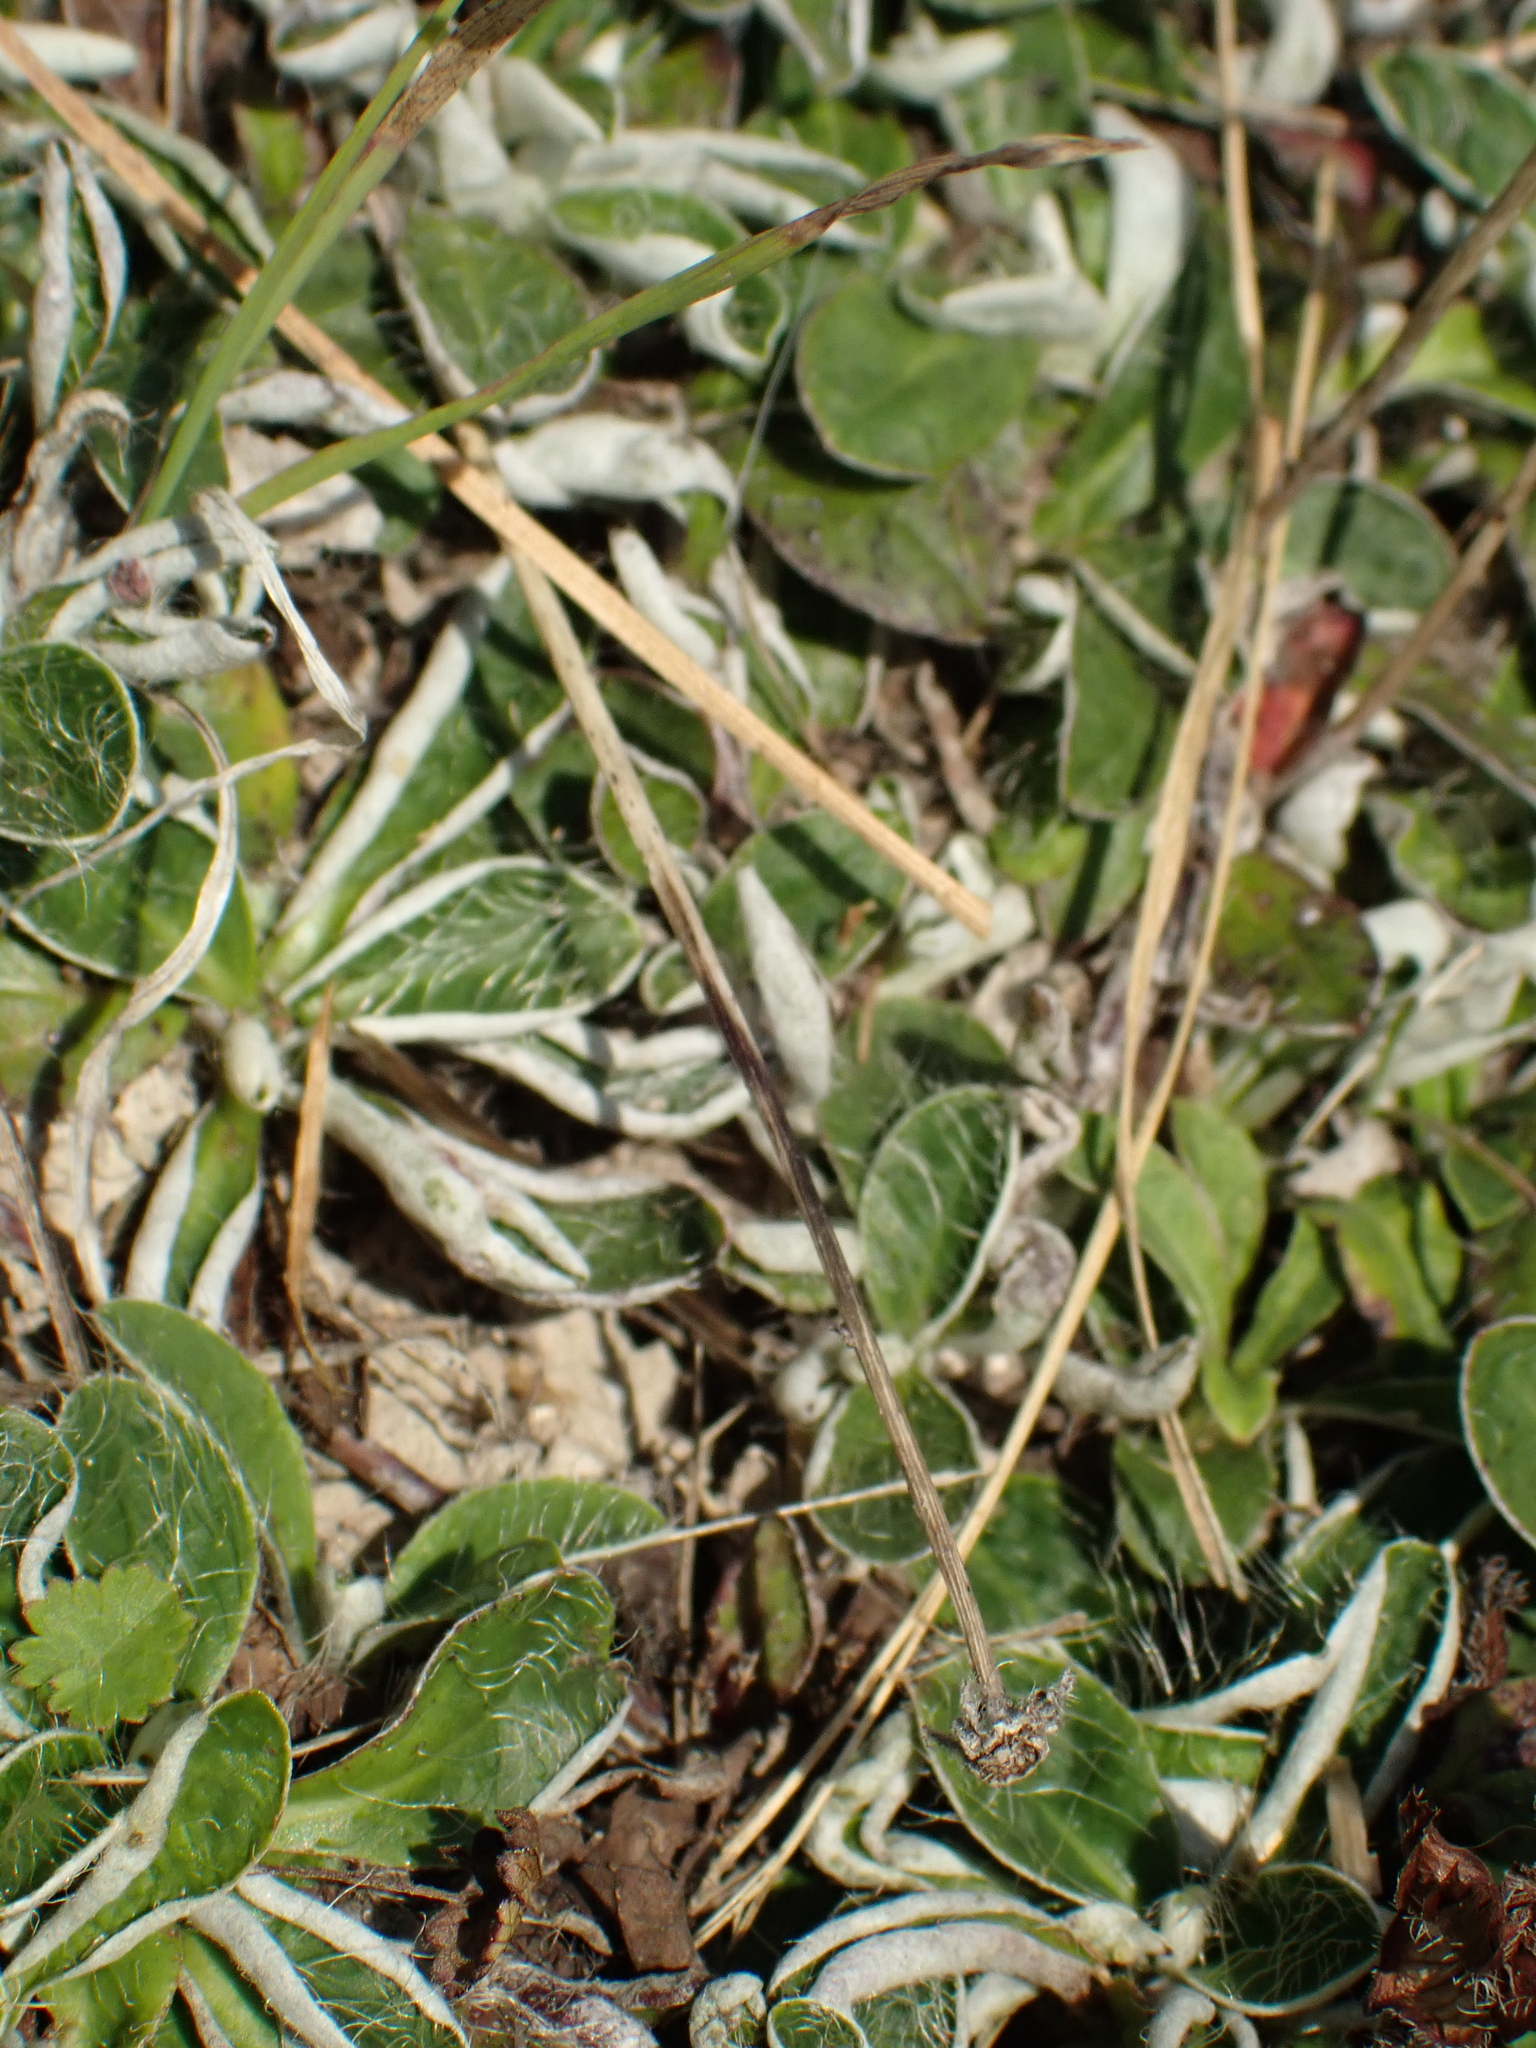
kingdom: Plantae
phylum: Tracheophyta
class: Magnoliopsida
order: Asterales
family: Asteraceae
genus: Pilosella
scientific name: Pilosella officinarum
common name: Mouse-ear hawkweed
